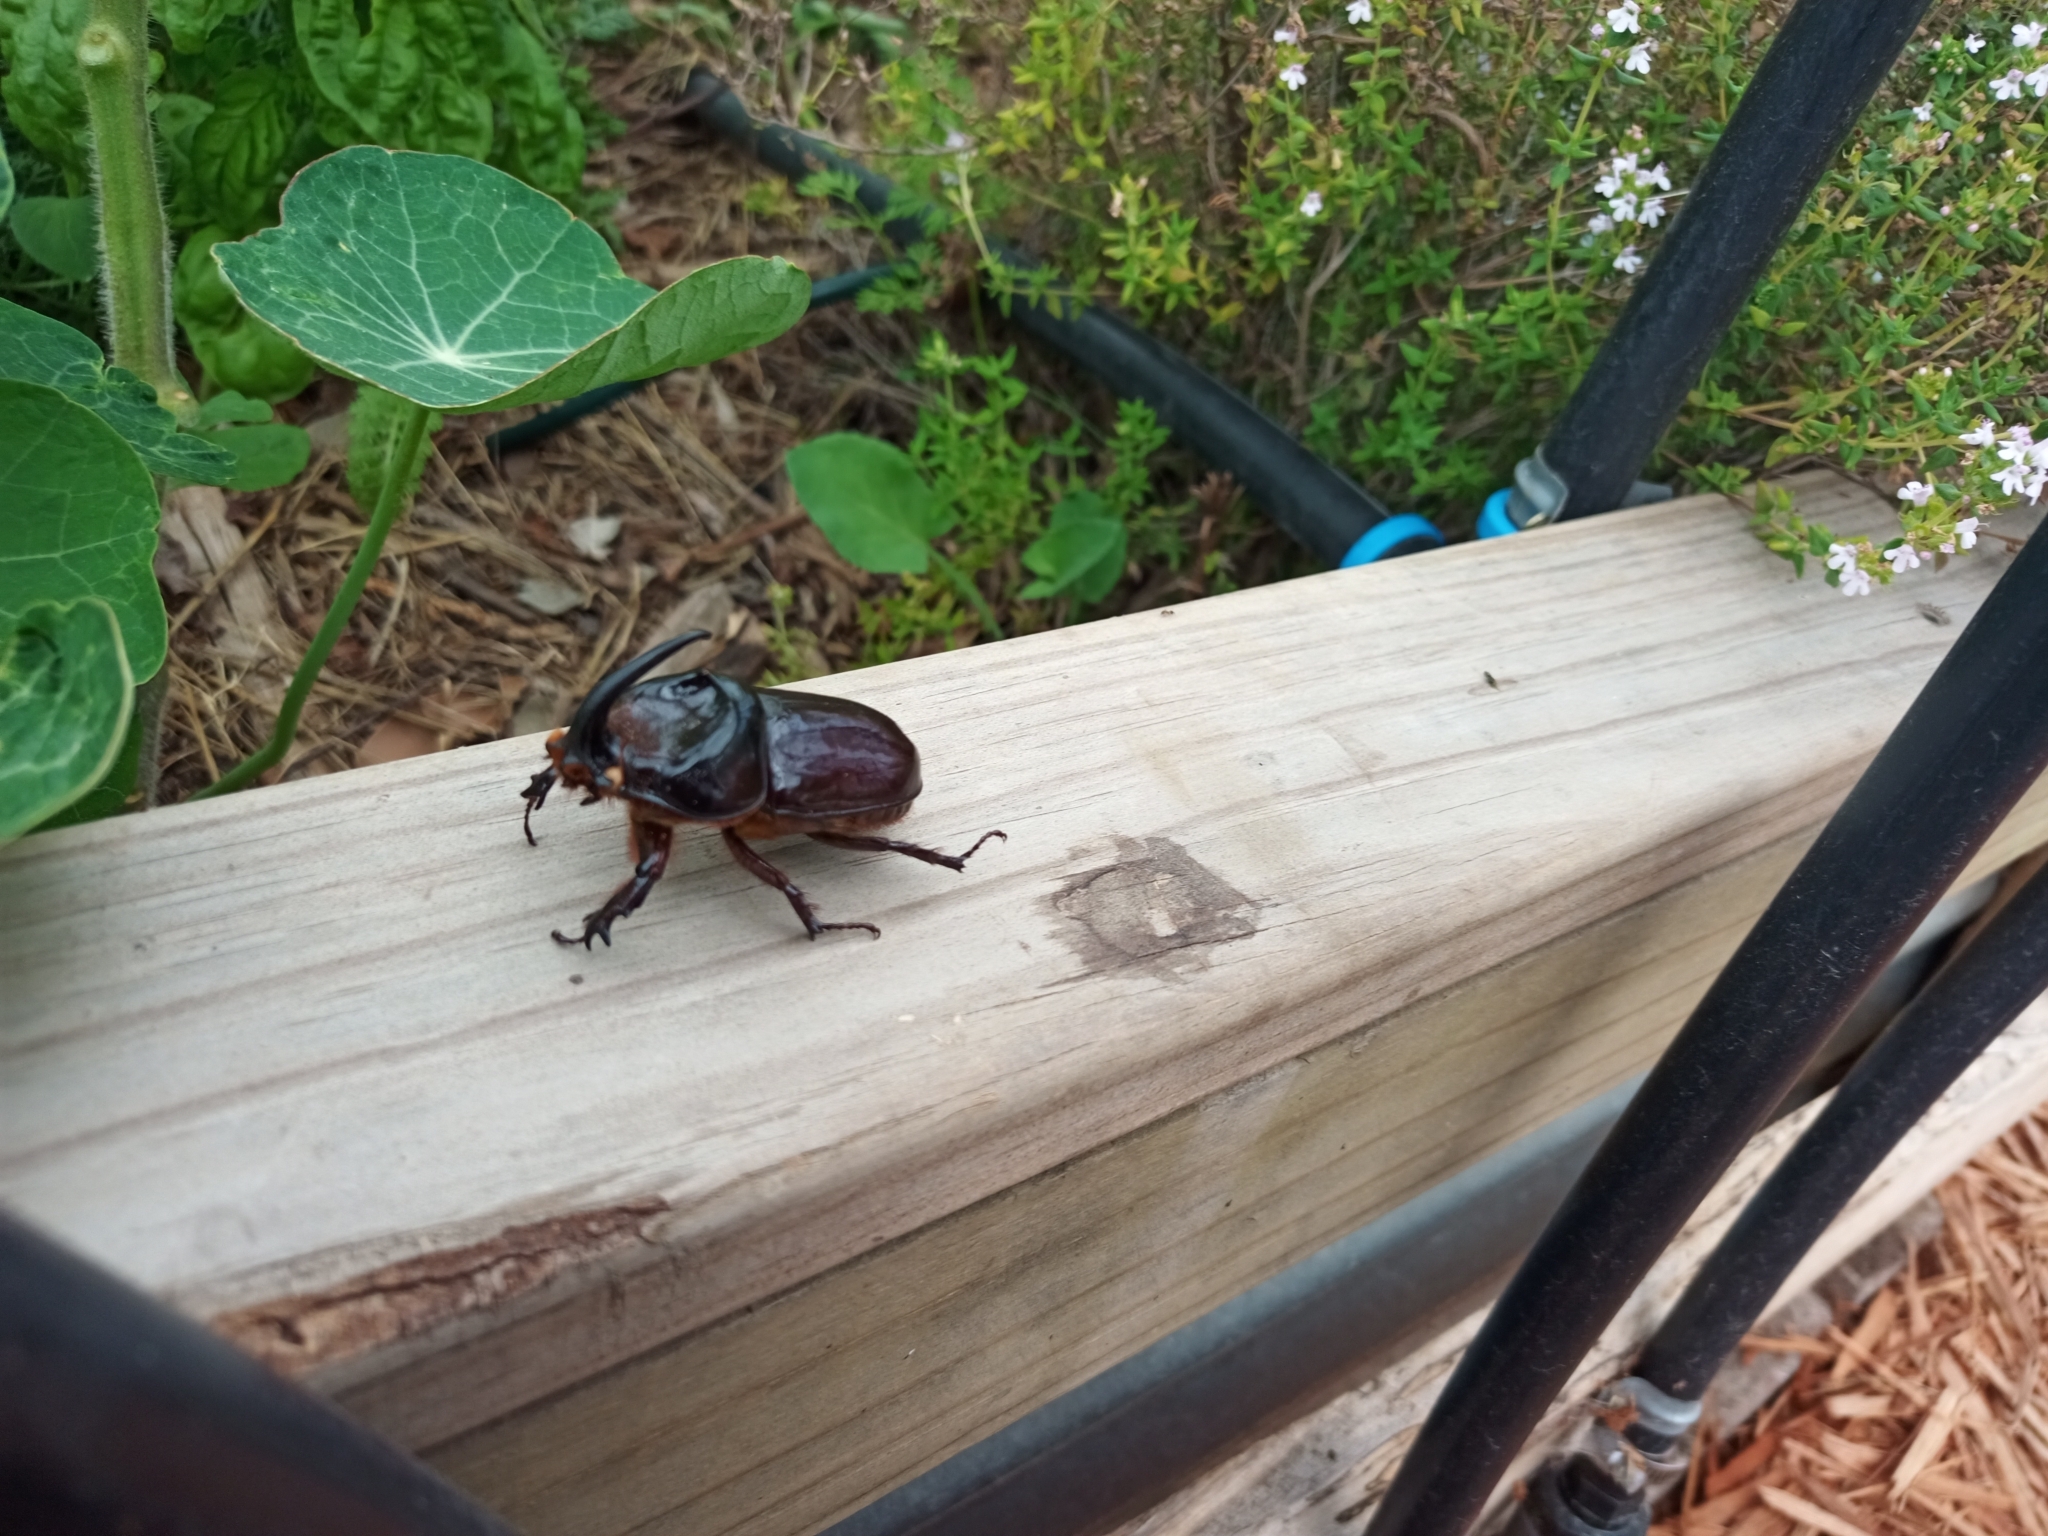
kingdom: Animalia
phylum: Arthropoda
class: Insecta
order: Coleoptera
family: Scarabaeidae
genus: Oryctes
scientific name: Oryctes boas
